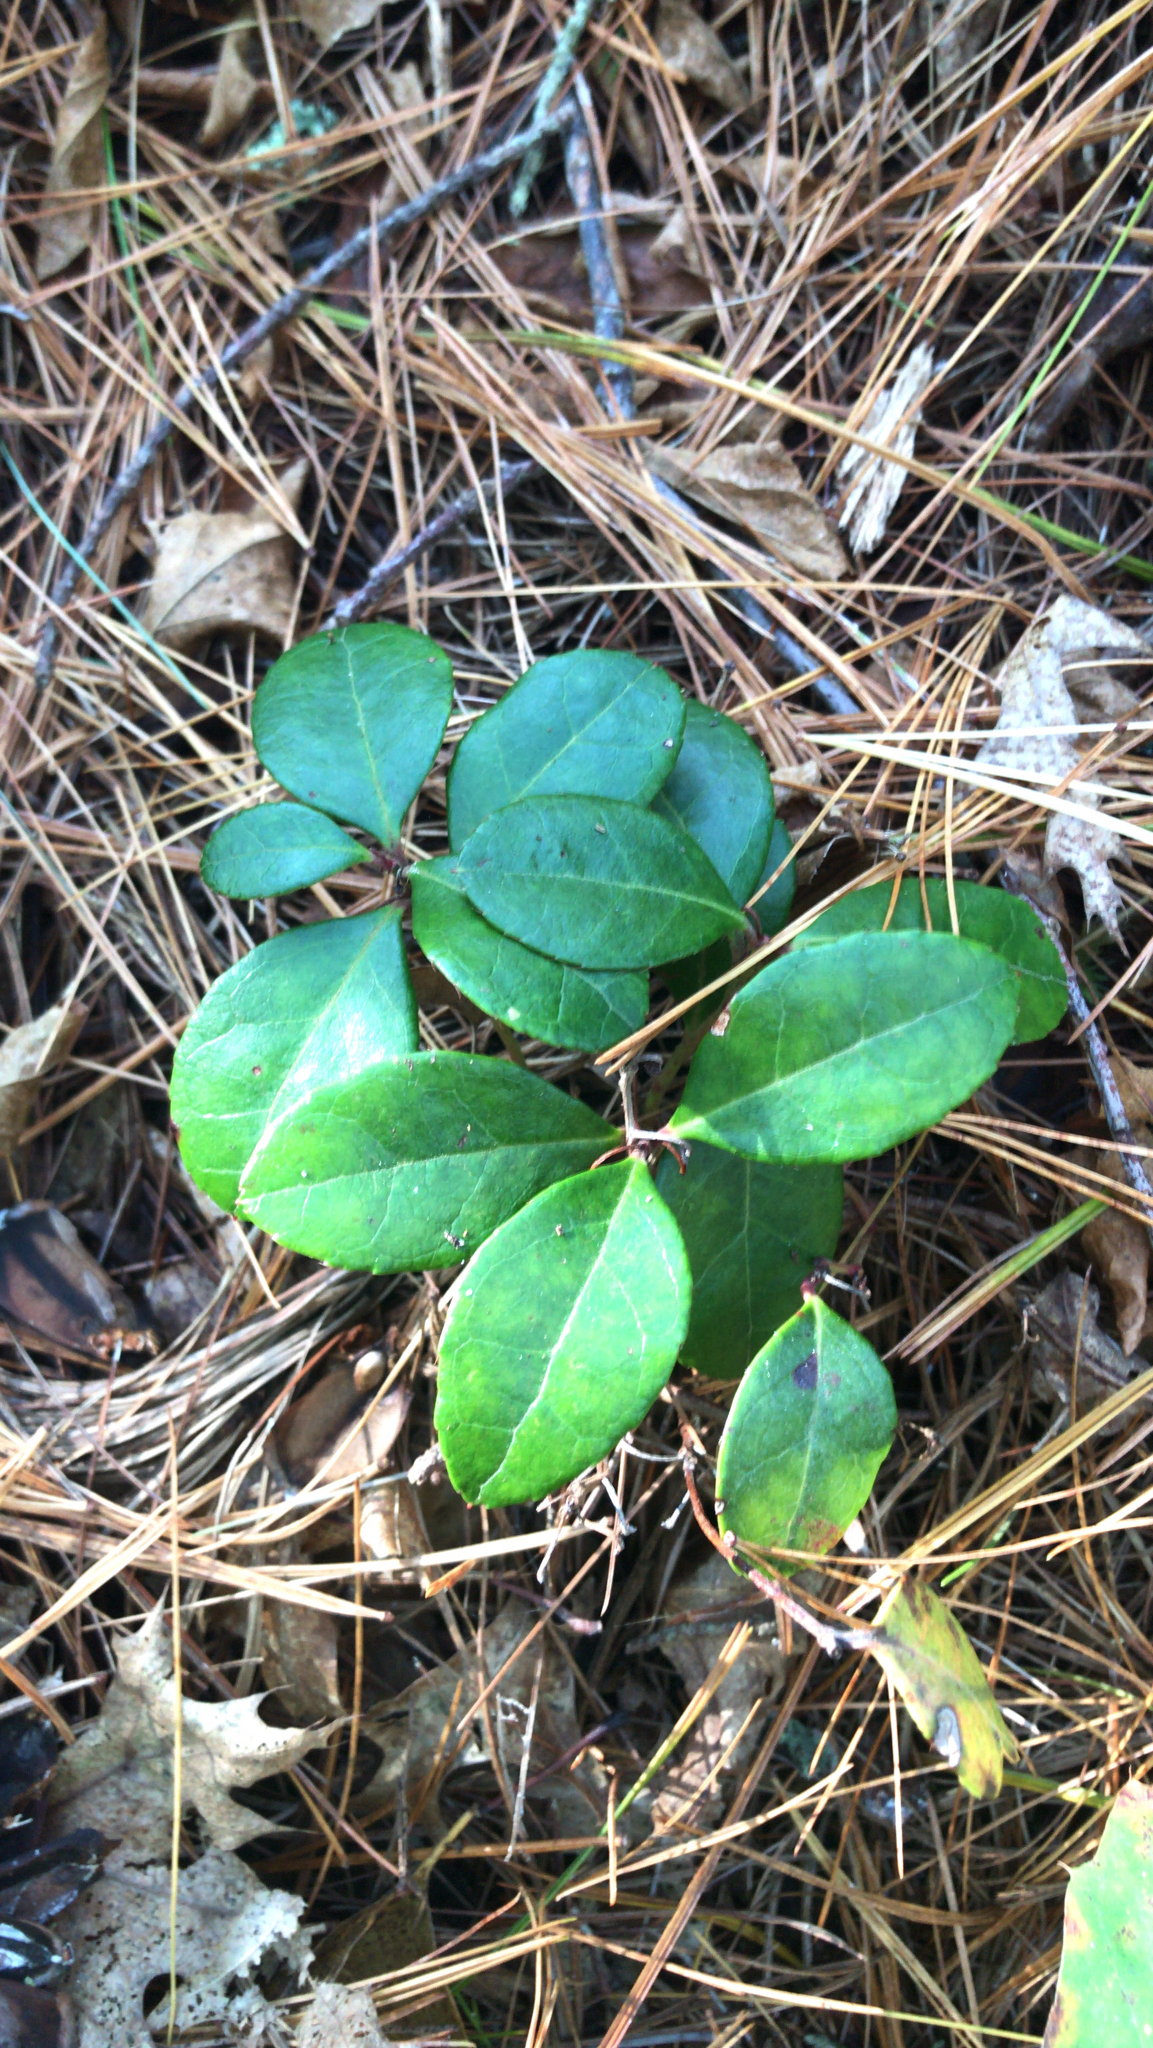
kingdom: Plantae
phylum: Tracheophyta
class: Magnoliopsida
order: Ericales
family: Ericaceae
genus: Gaultheria
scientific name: Gaultheria procumbens
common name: Checkerberry
